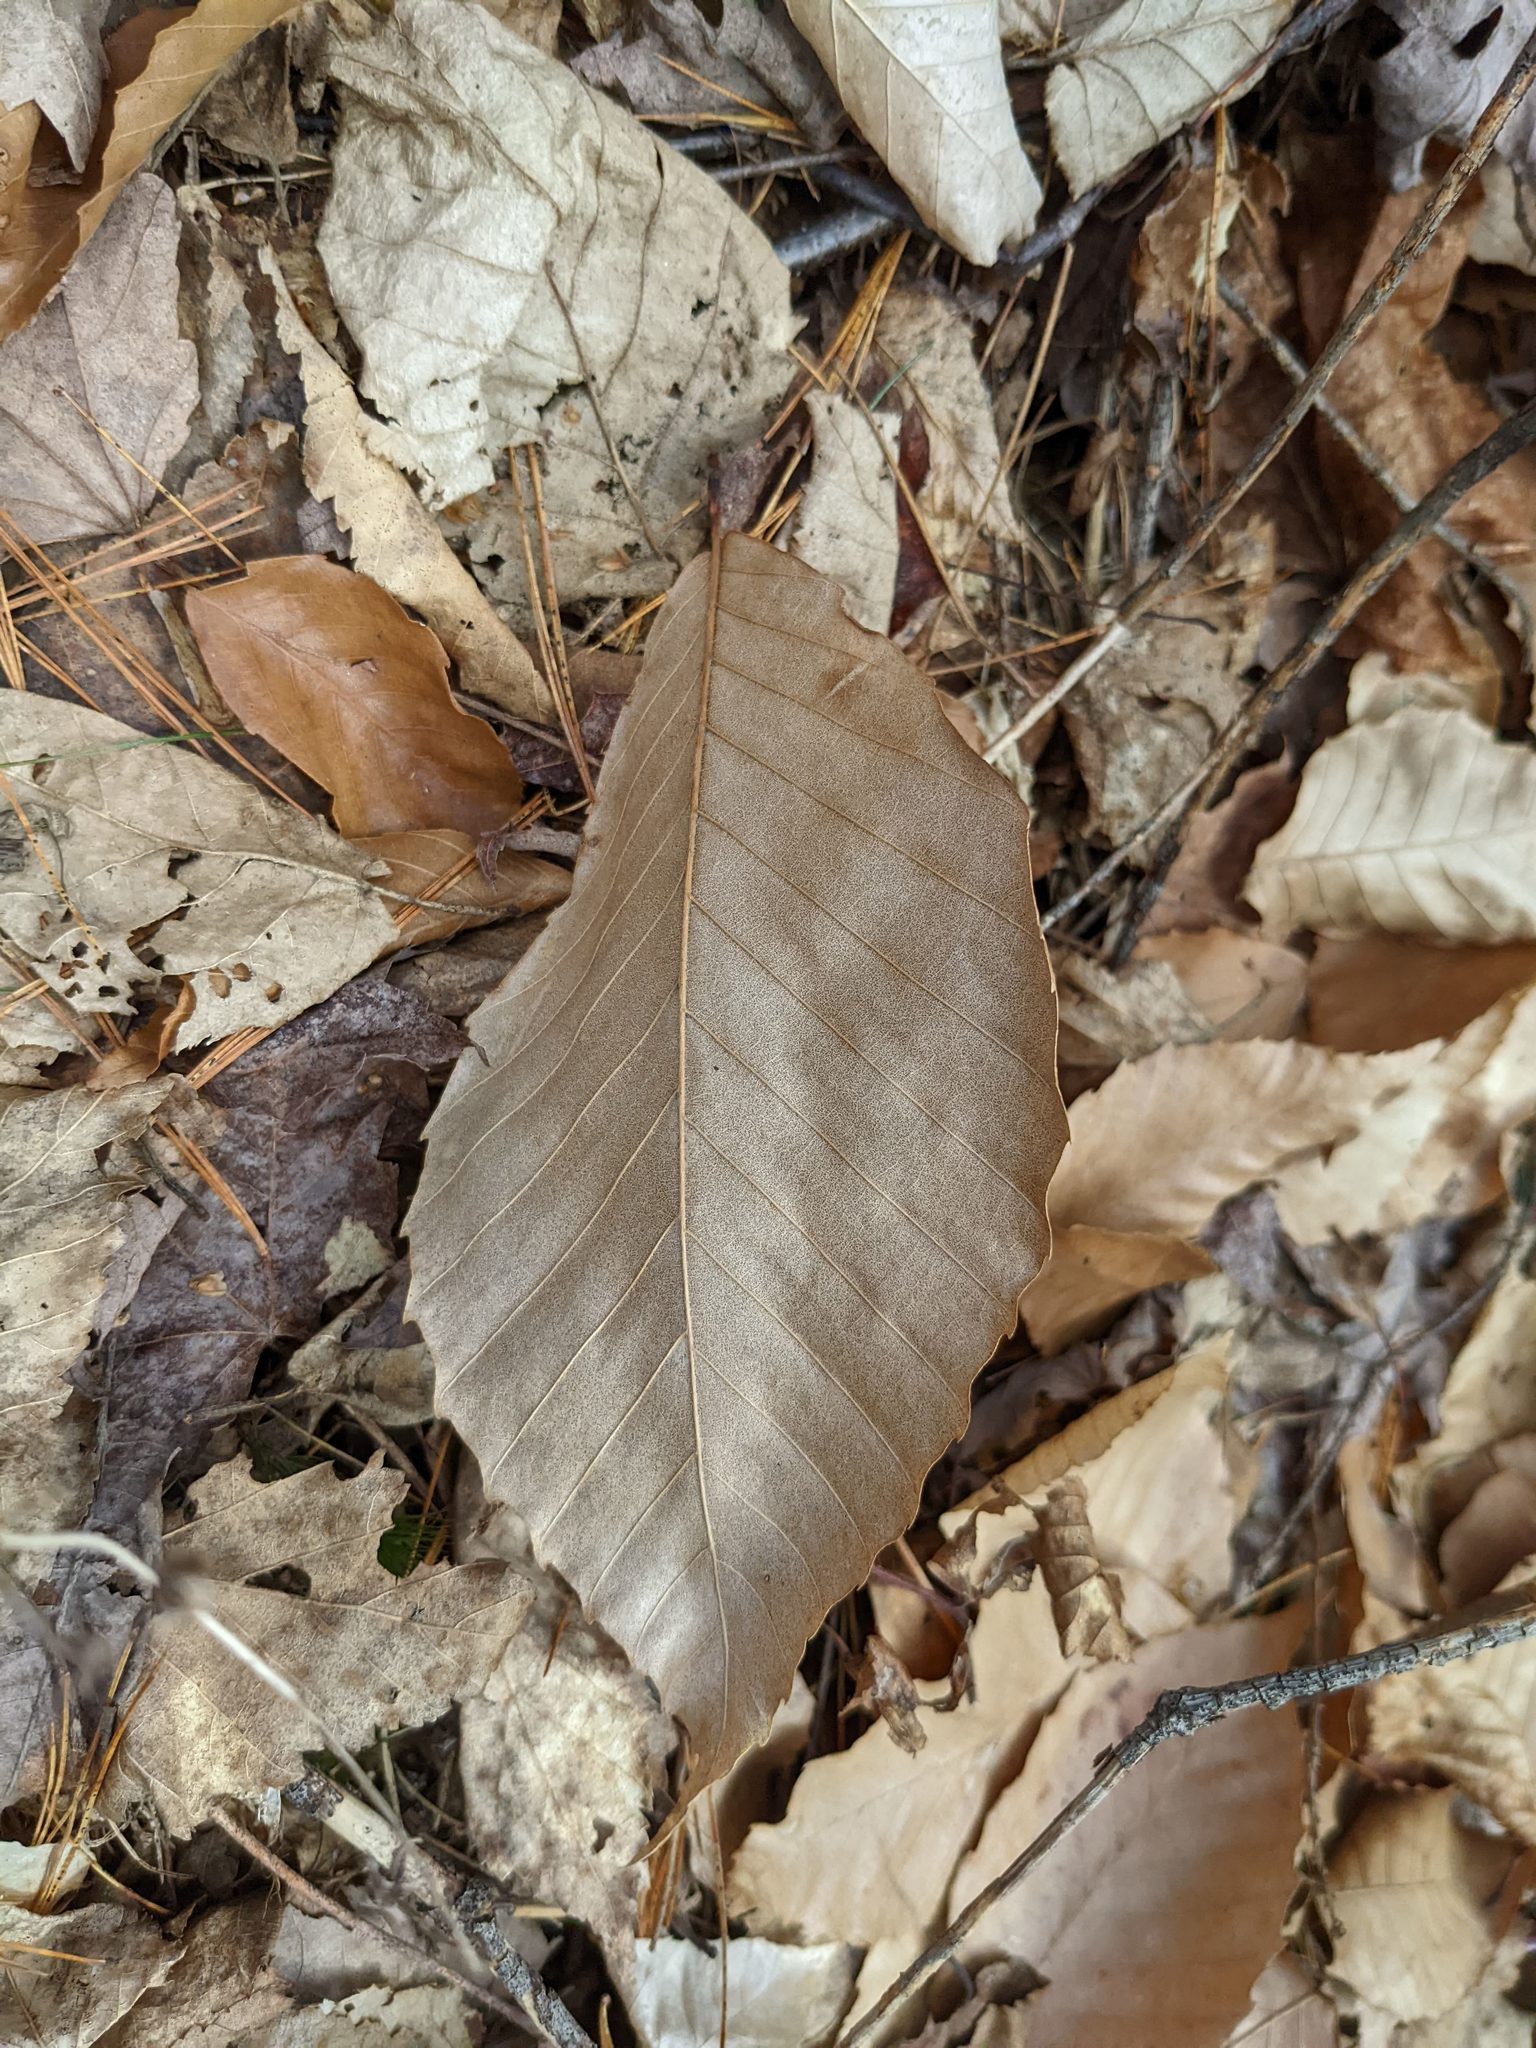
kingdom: Plantae
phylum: Tracheophyta
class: Magnoliopsida
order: Fagales
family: Fagaceae
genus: Fagus
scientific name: Fagus grandifolia
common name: American beech
